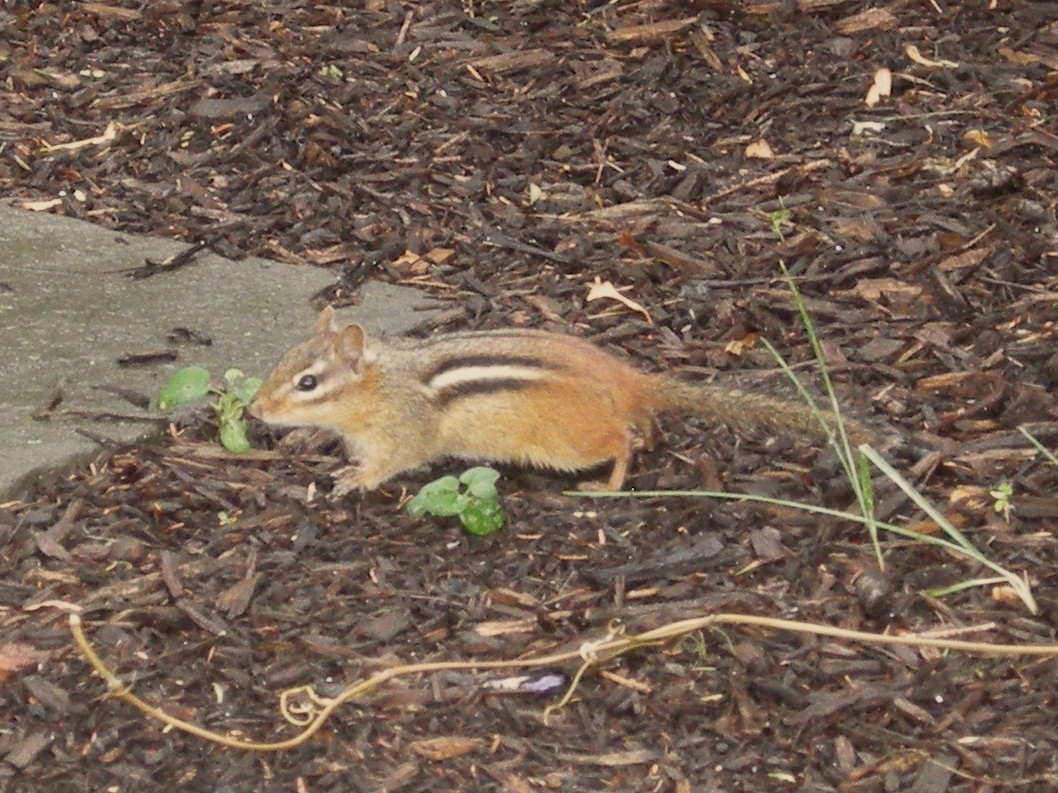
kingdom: Animalia
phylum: Chordata
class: Mammalia
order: Rodentia
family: Sciuridae
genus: Tamias
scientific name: Tamias striatus
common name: Eastern chipmunk
